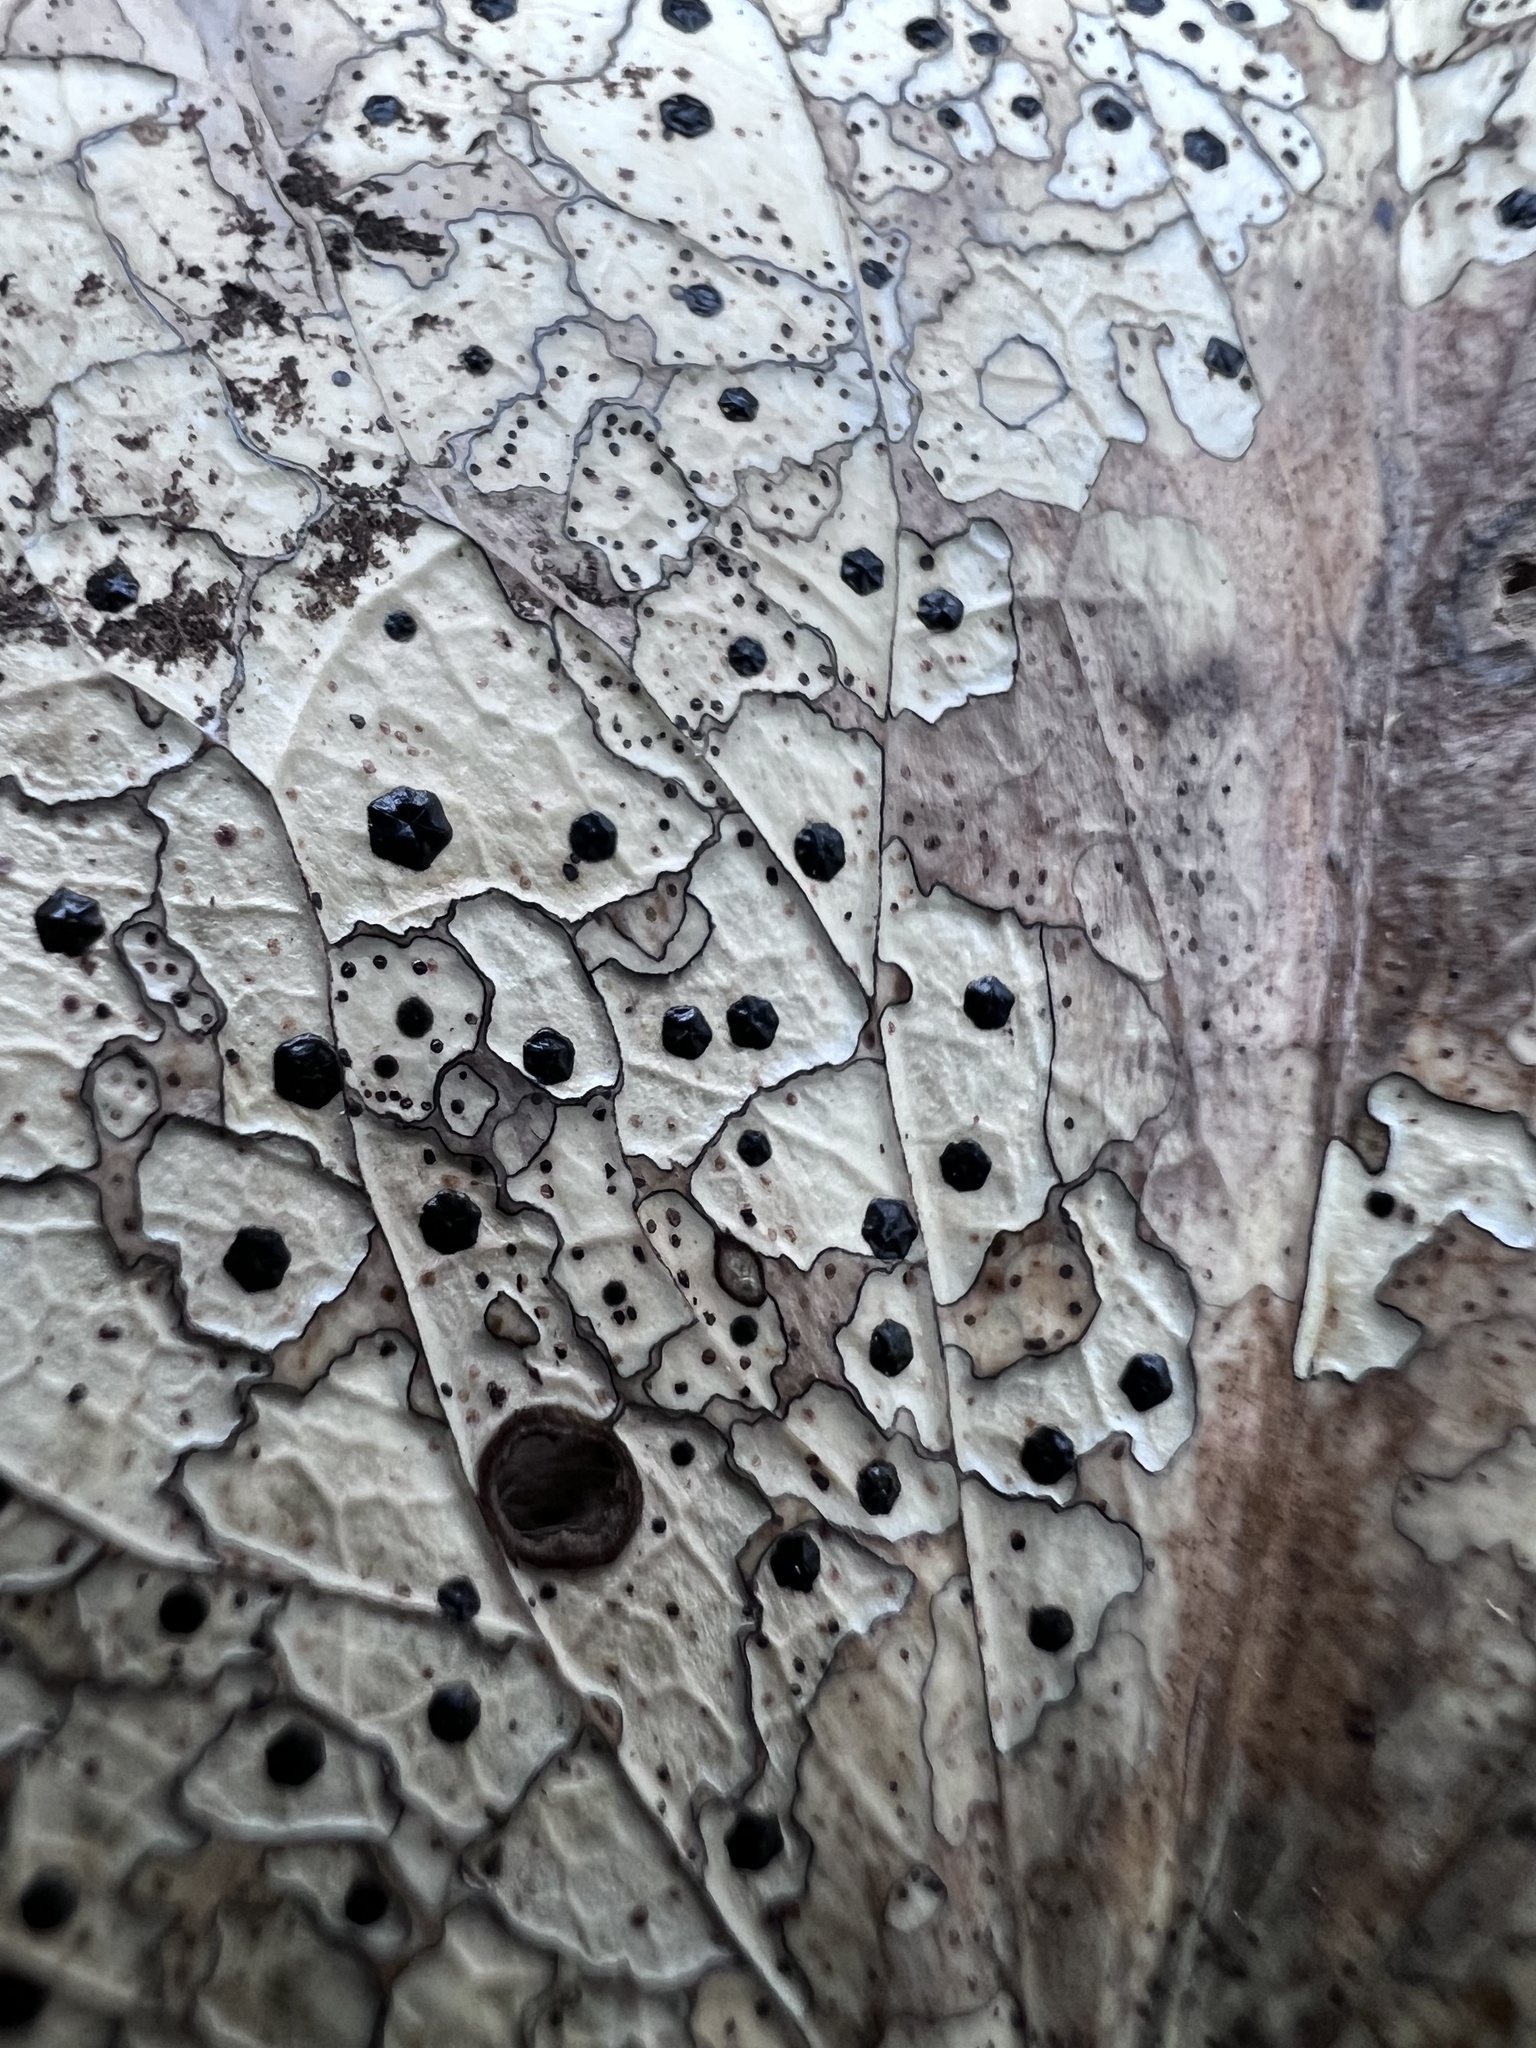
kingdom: Fungi
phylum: Ascomycota
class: Leotiomycetes
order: Rhytismatales
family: Rhytismataceae
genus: Coccomyces
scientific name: Coccomyces dentatus
